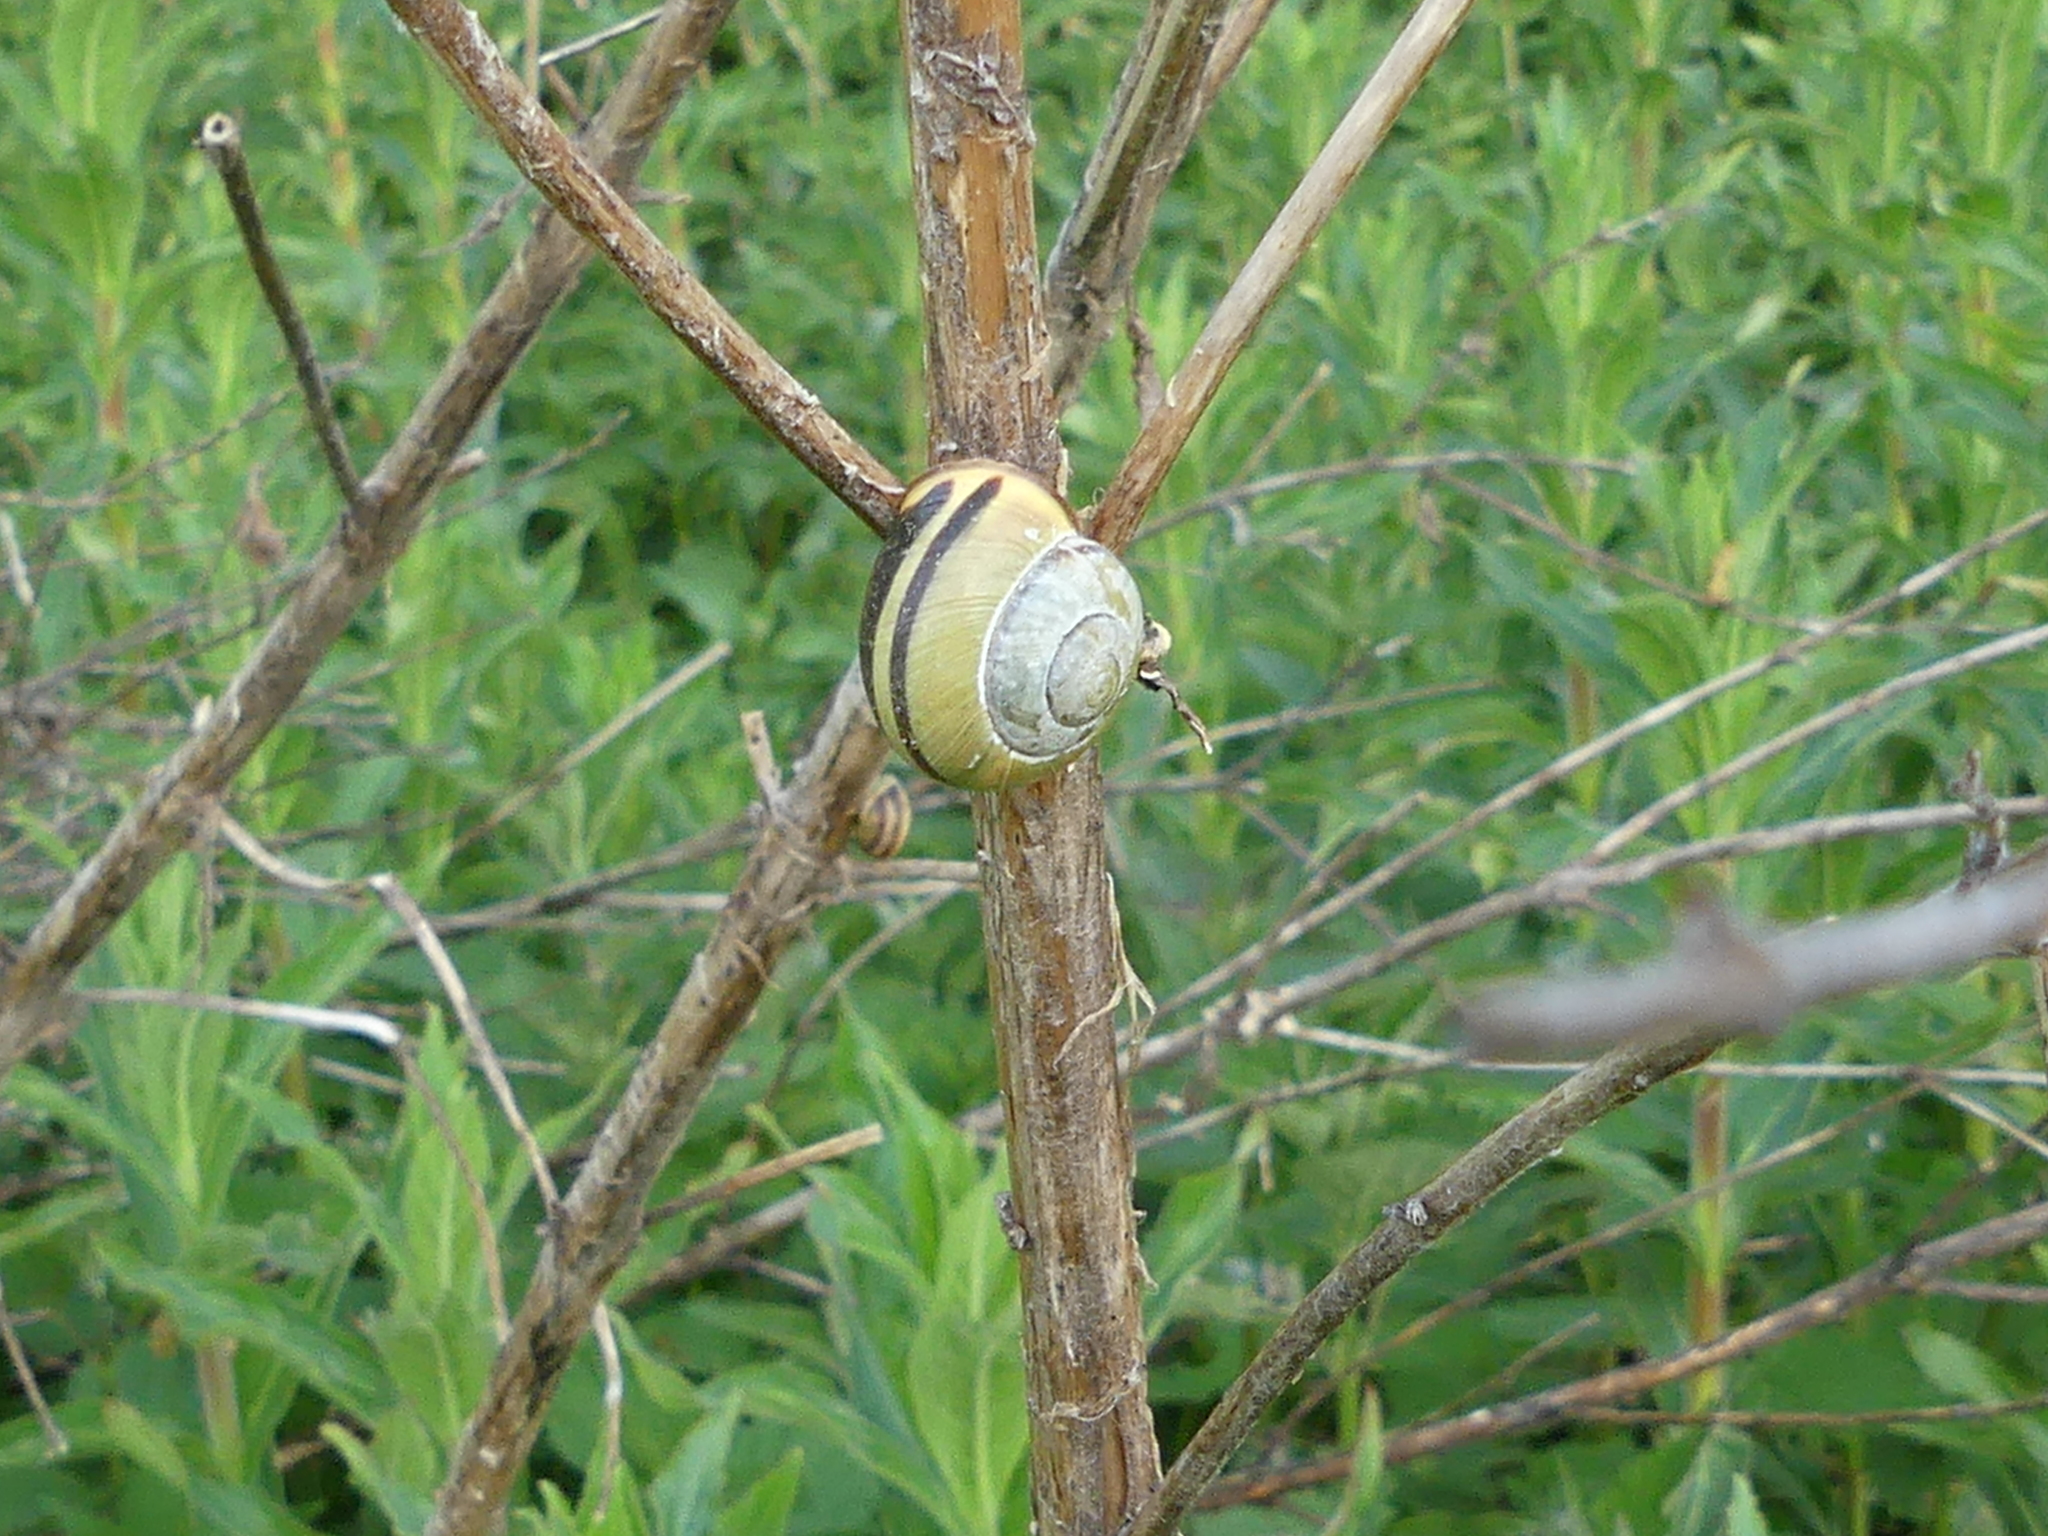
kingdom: Animalia
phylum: Mollusca
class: Gastropoda
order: Stylommatophora
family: Helicidae
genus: Cepaea
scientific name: Cepaea nemoralis
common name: Grovesnail
